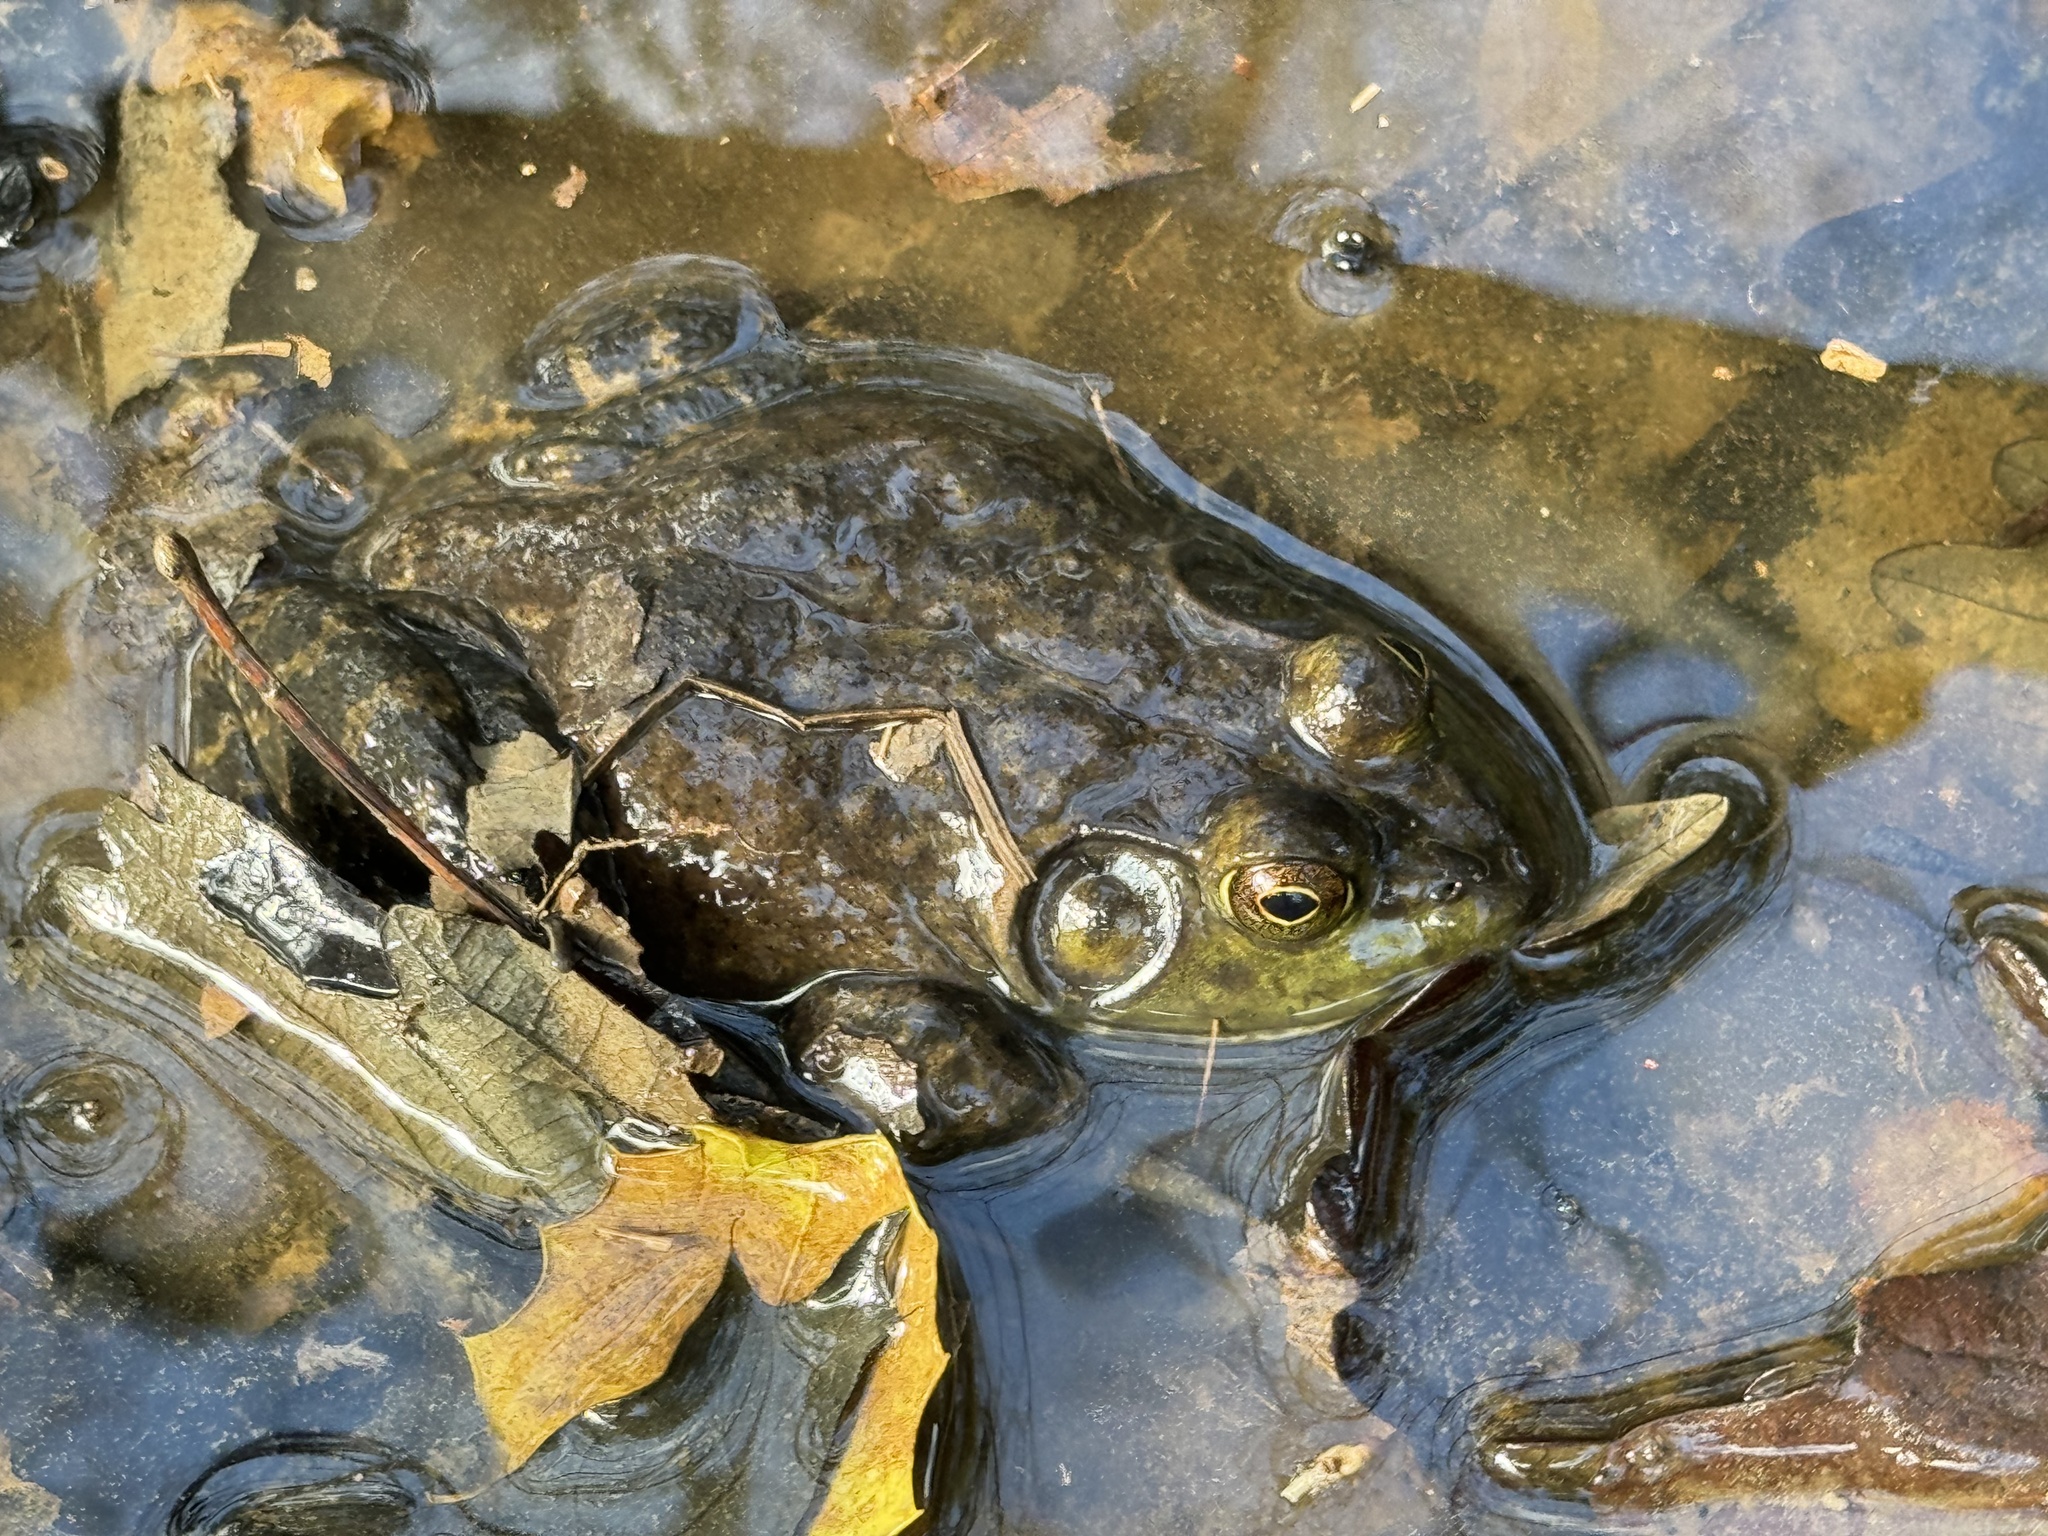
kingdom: Animalia
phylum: Chordata
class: Amphibia
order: Anura
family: Ranidae
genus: Lithobates
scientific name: Lithobates catesbeianus
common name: American bullfrog
